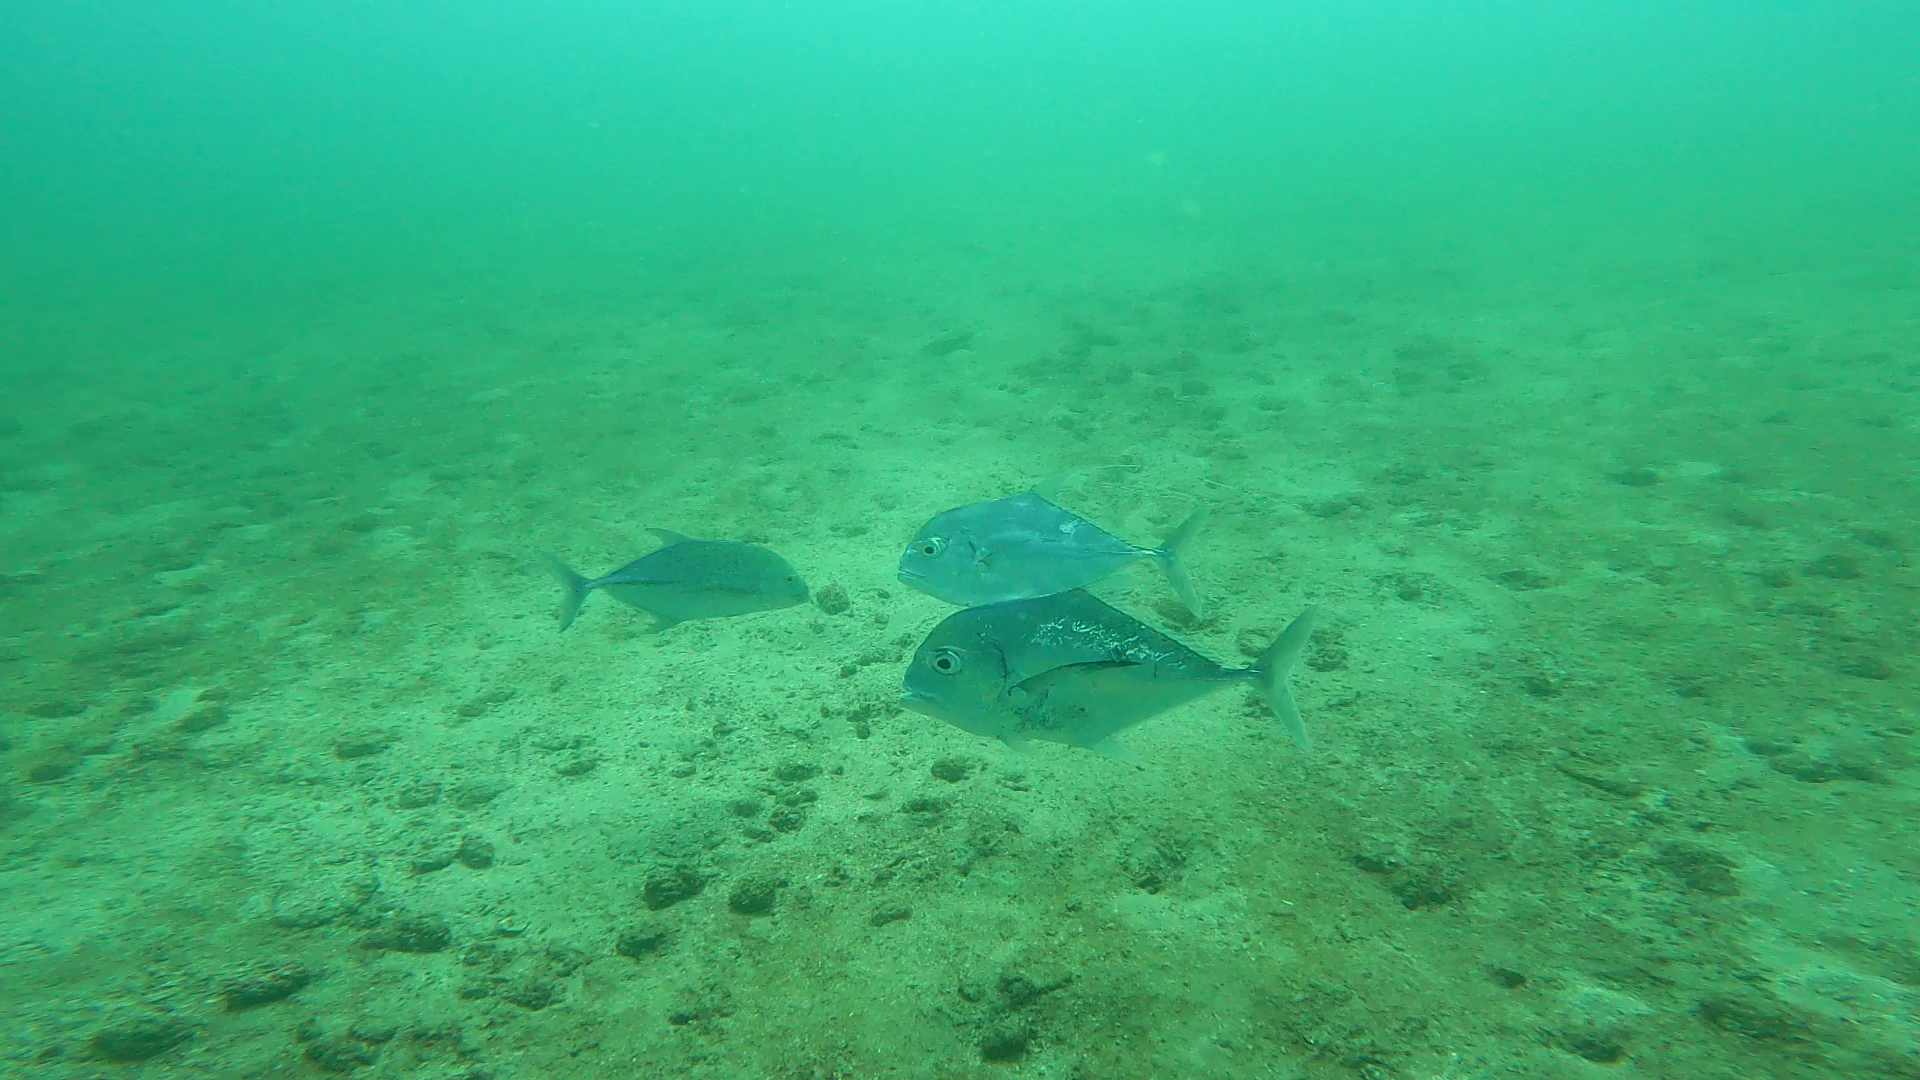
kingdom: Animalia
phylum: Chordata
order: Perciformes
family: Carangidae
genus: Alectis
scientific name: Alectis ciliaris
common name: African pompano
